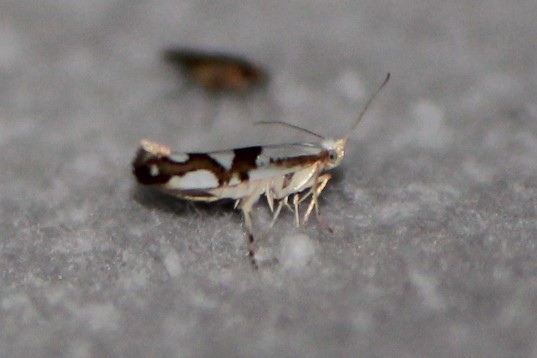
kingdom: Animalia
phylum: Arthropoda
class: Insecta
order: Lepidoptera
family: Argyresthiidae
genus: Argyresthia
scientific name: Argyresthia oreasella
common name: Cherry shoot borer moth
